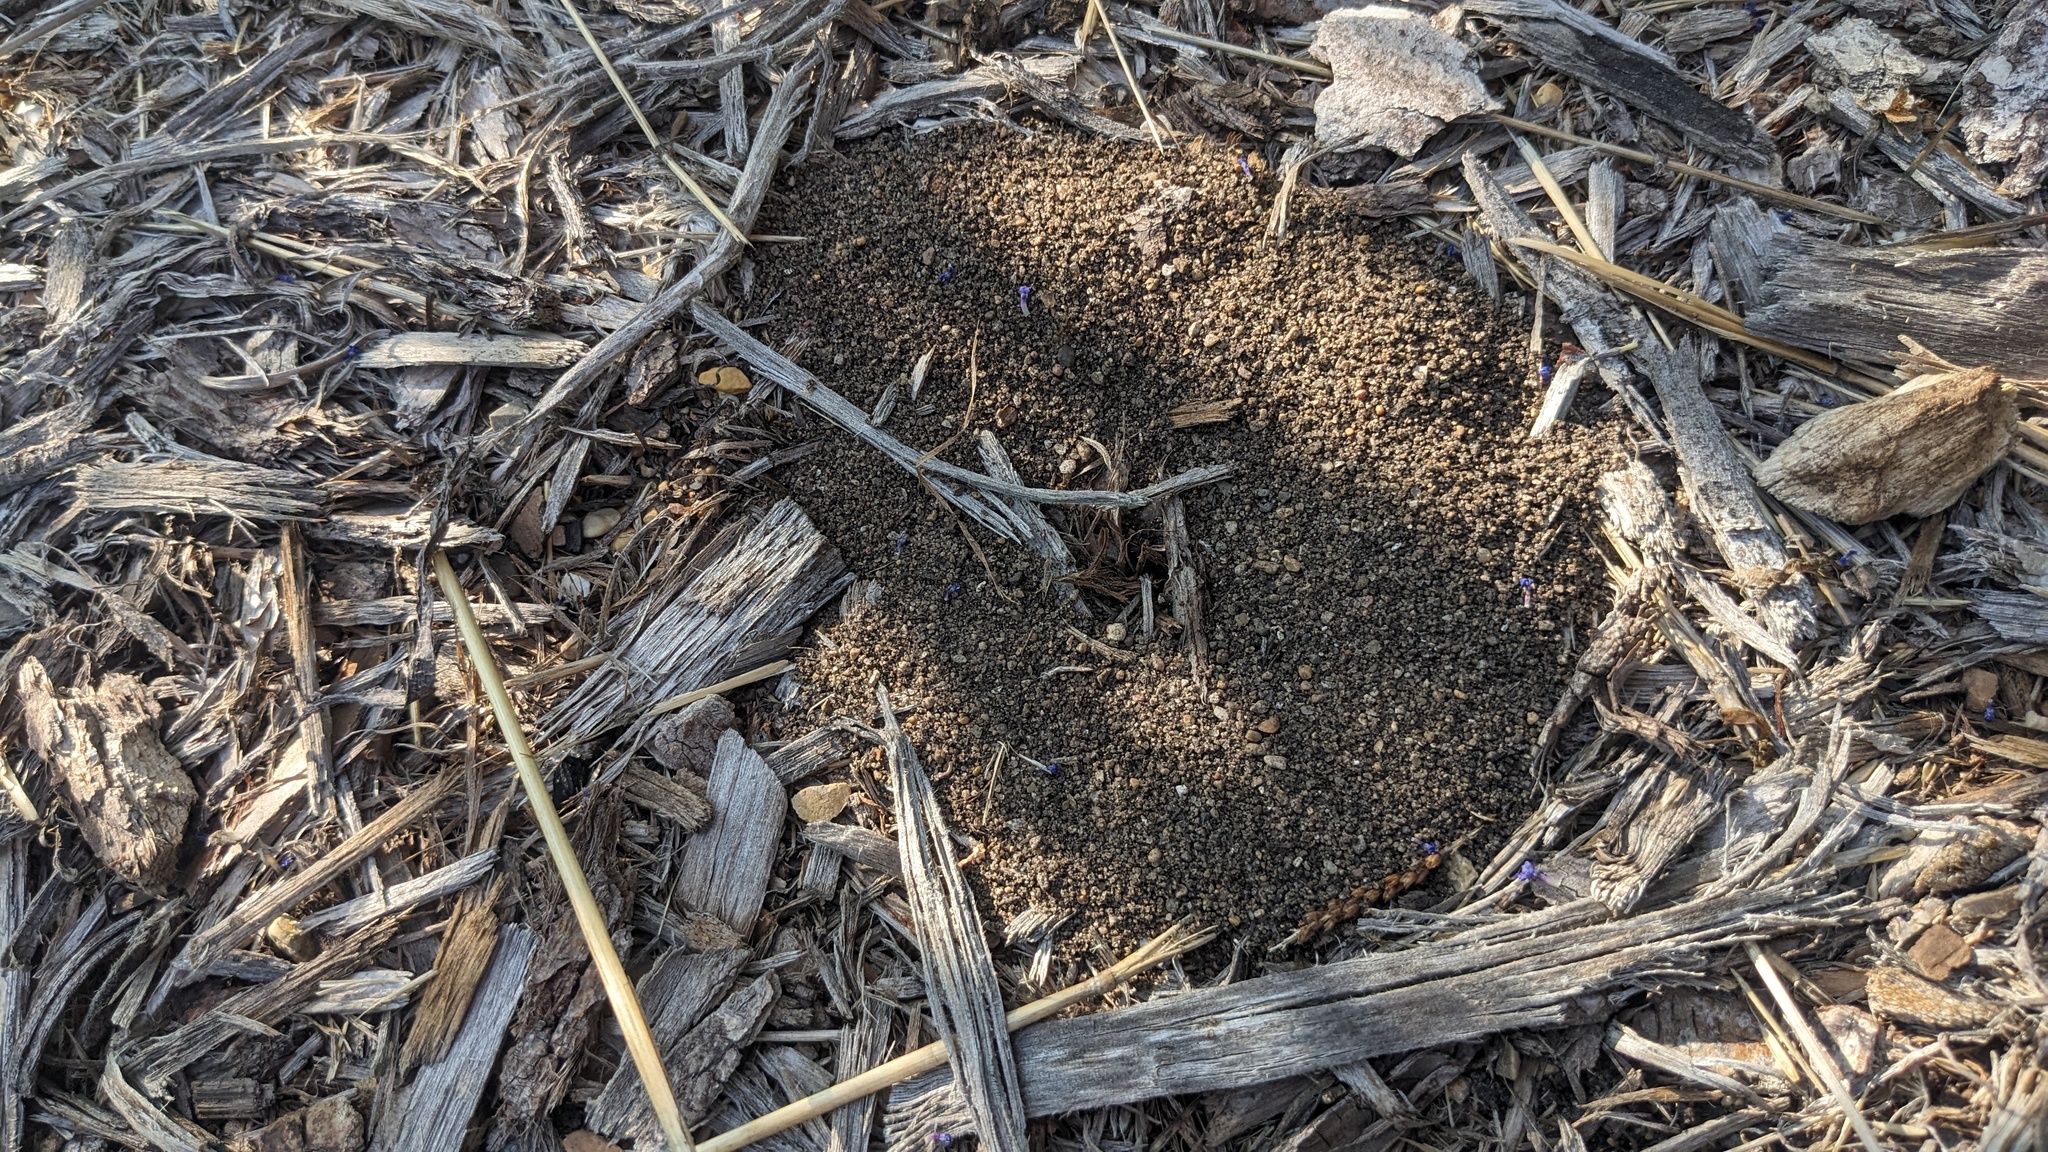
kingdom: Animalia
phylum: Arthropoda
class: Insecta
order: Hymenoptera
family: Formicidae
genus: Lasius
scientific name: Lasius neoniger
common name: Turfgrass ant
